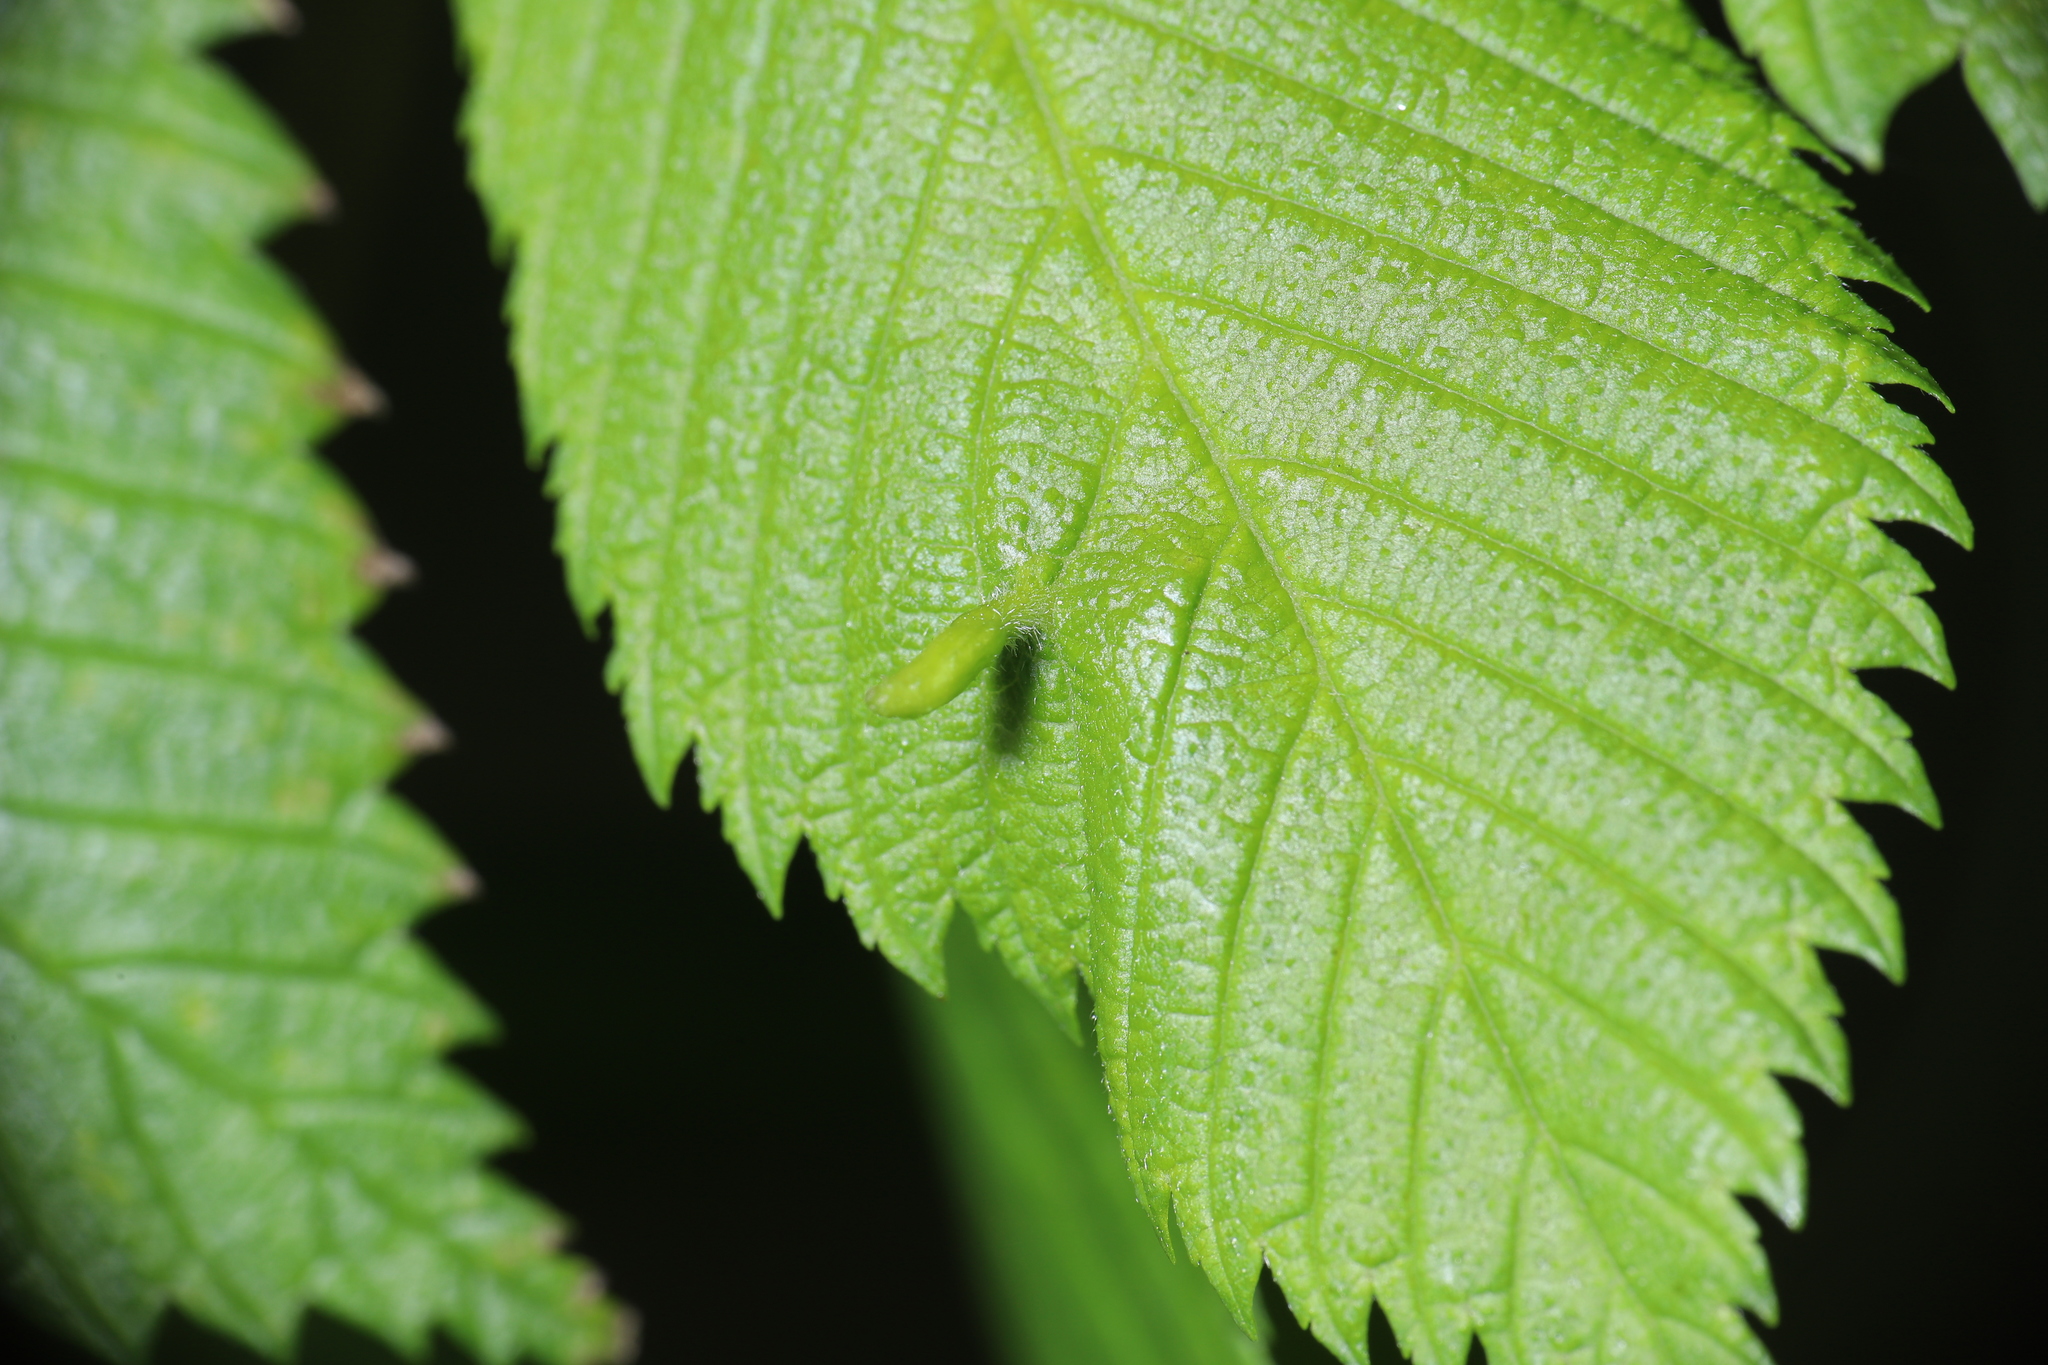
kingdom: Animalia
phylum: Arthropoda
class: Arachnida
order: Trombidiformes
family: Eriophyidae
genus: Aceria
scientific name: Aceria
